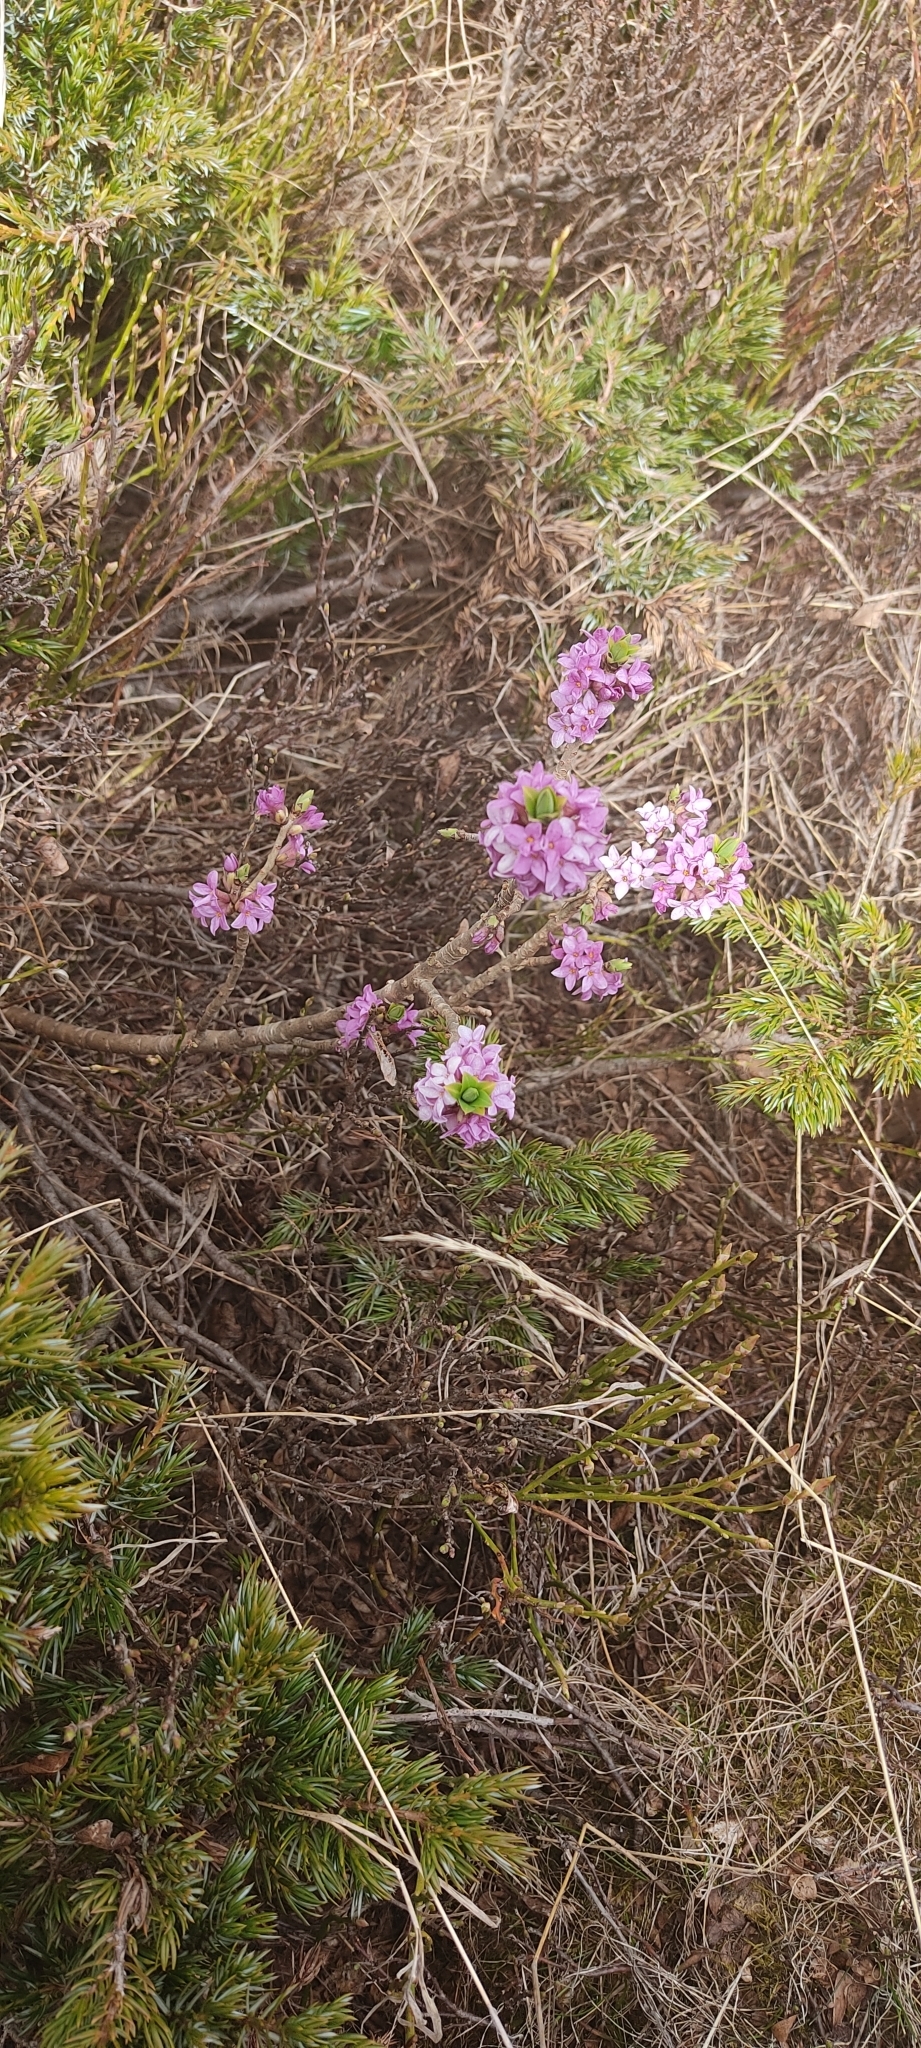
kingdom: Plantae
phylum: Tracheophyta
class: Magnoliopsida
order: Malvales
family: Thymelaeaceae
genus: Daphne
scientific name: Daphne mezereum
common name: Mezereon
